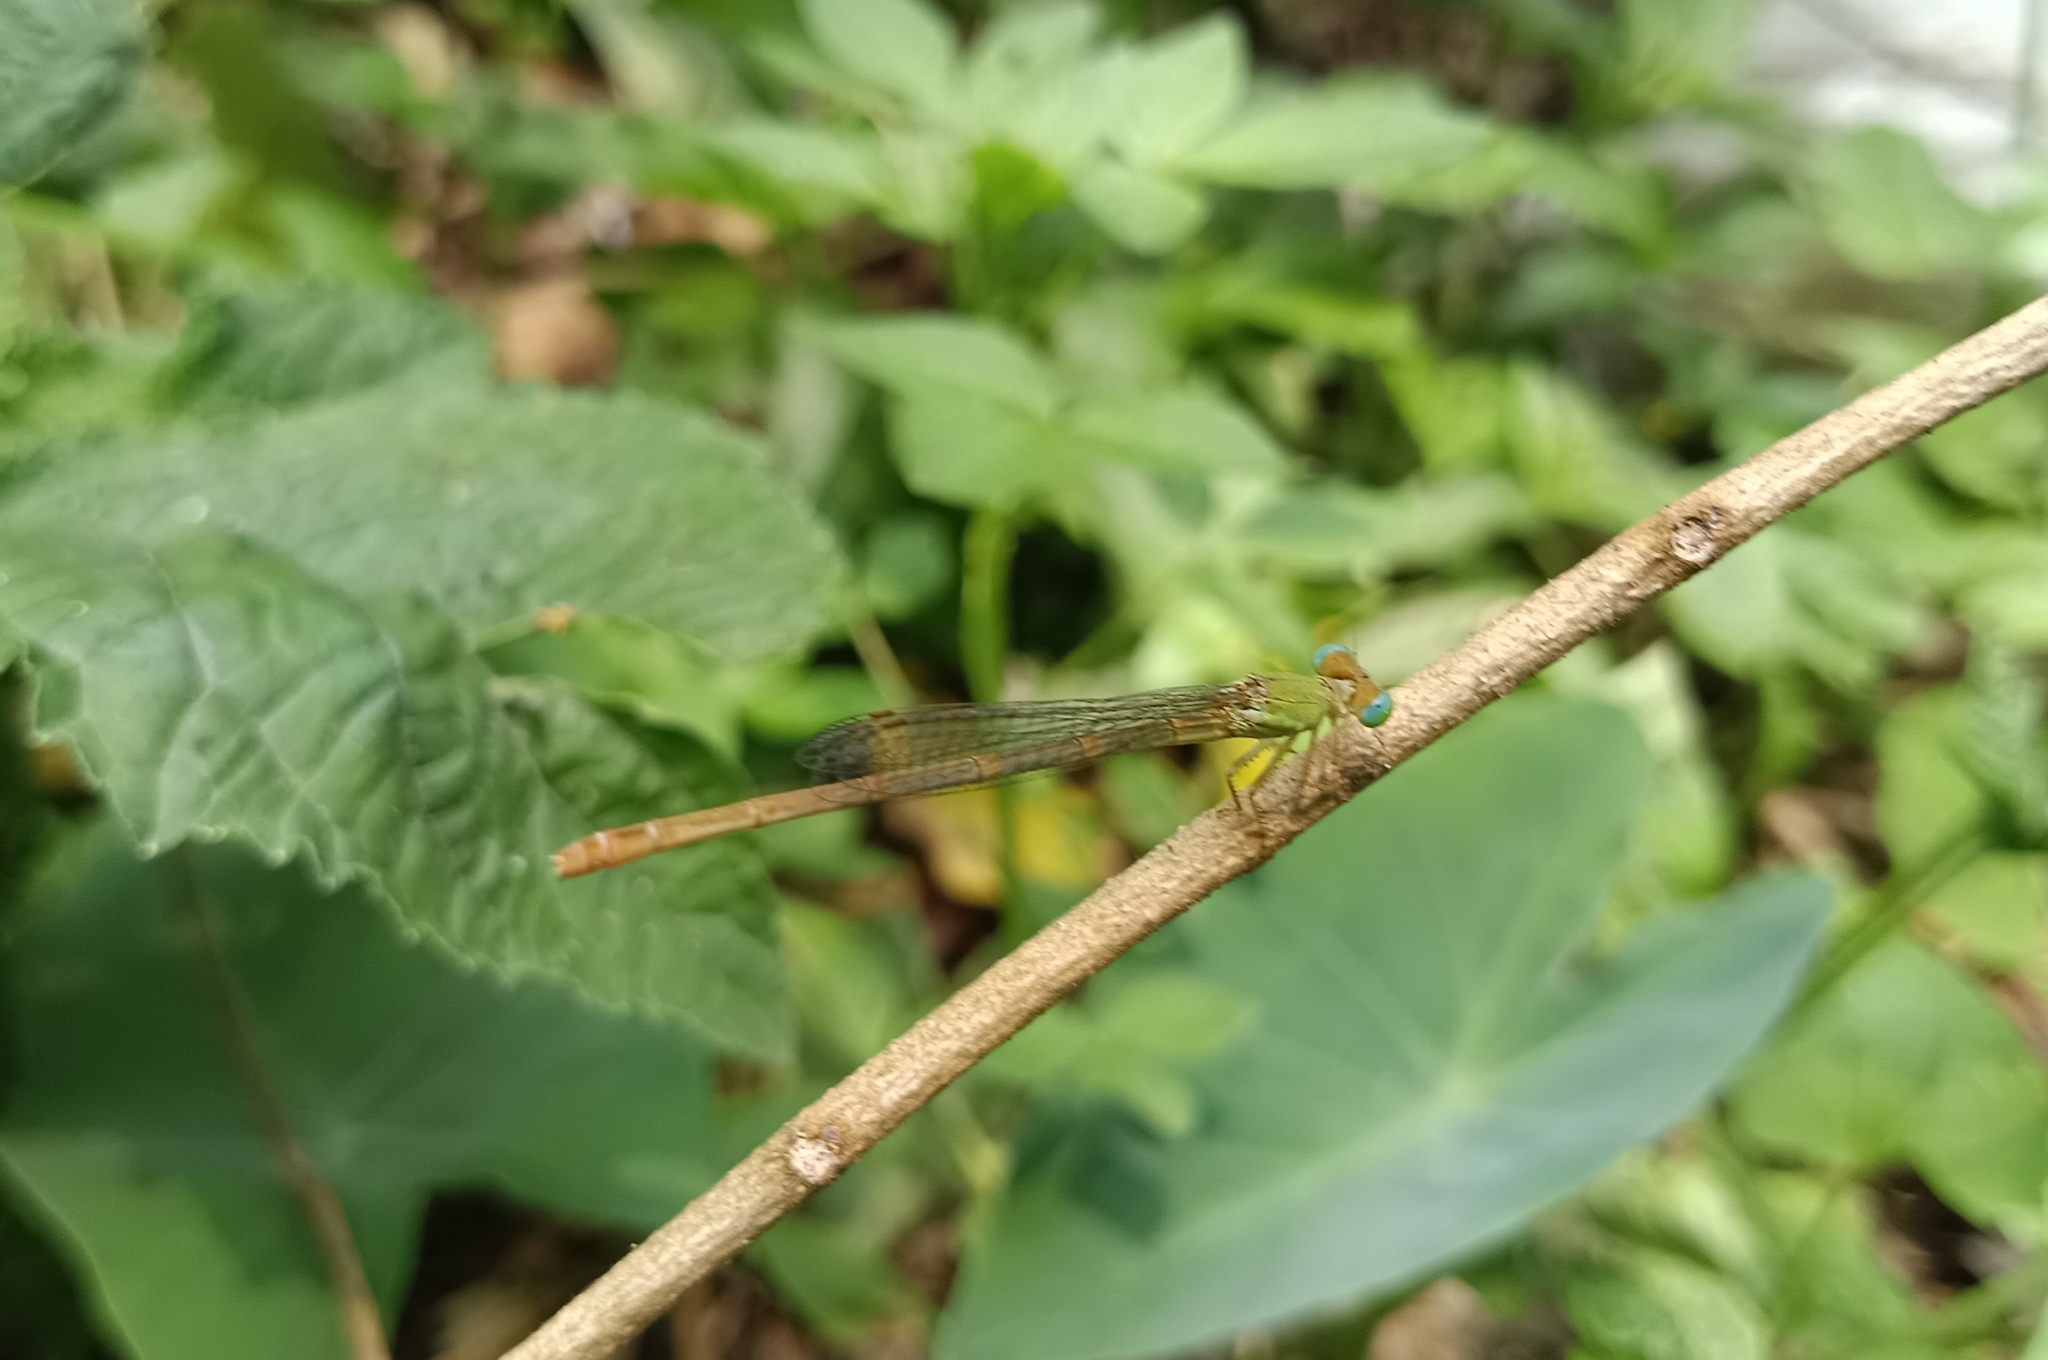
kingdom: Animalia
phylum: Arthropoda
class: Insecta
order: Odonata
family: Coenagrionidae
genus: Ceriagrion
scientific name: Ceriagrion coromandelianum
